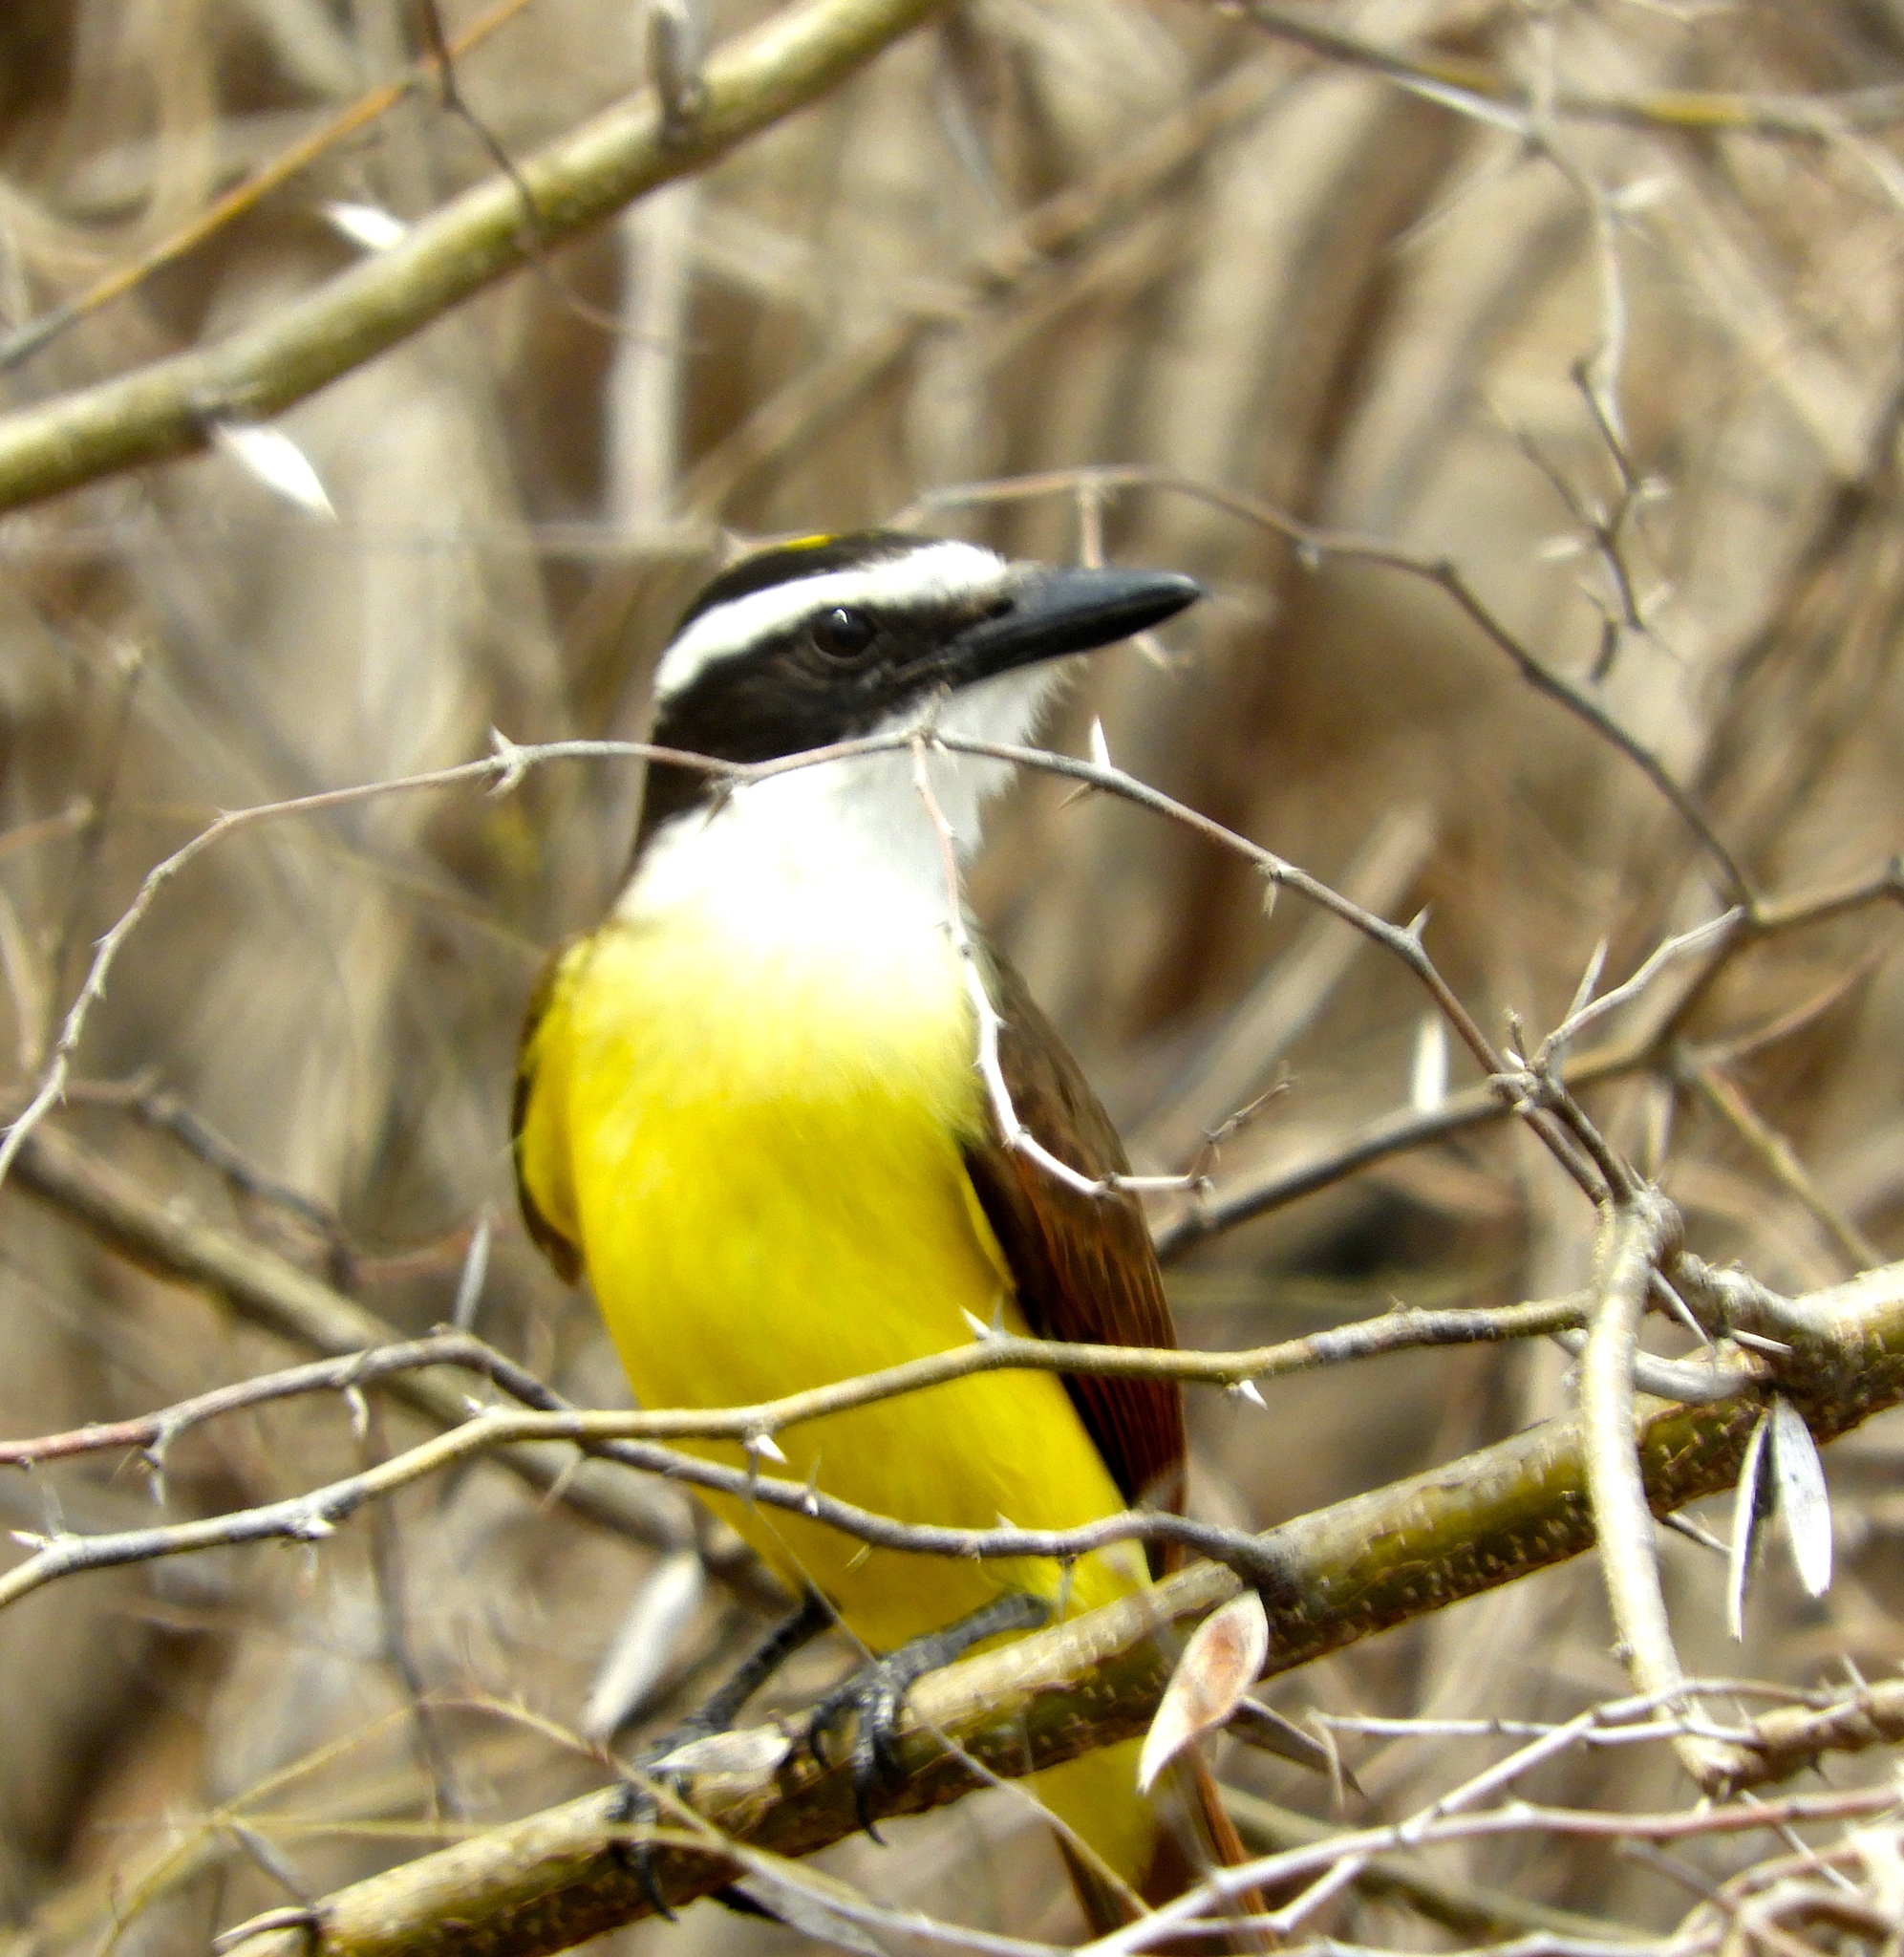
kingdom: Animalia
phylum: Chordata
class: Aves
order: Passeriformes
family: Tyrannidae
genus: Pitangus
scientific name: Pitangus sulphuratus
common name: Great kiskadee
